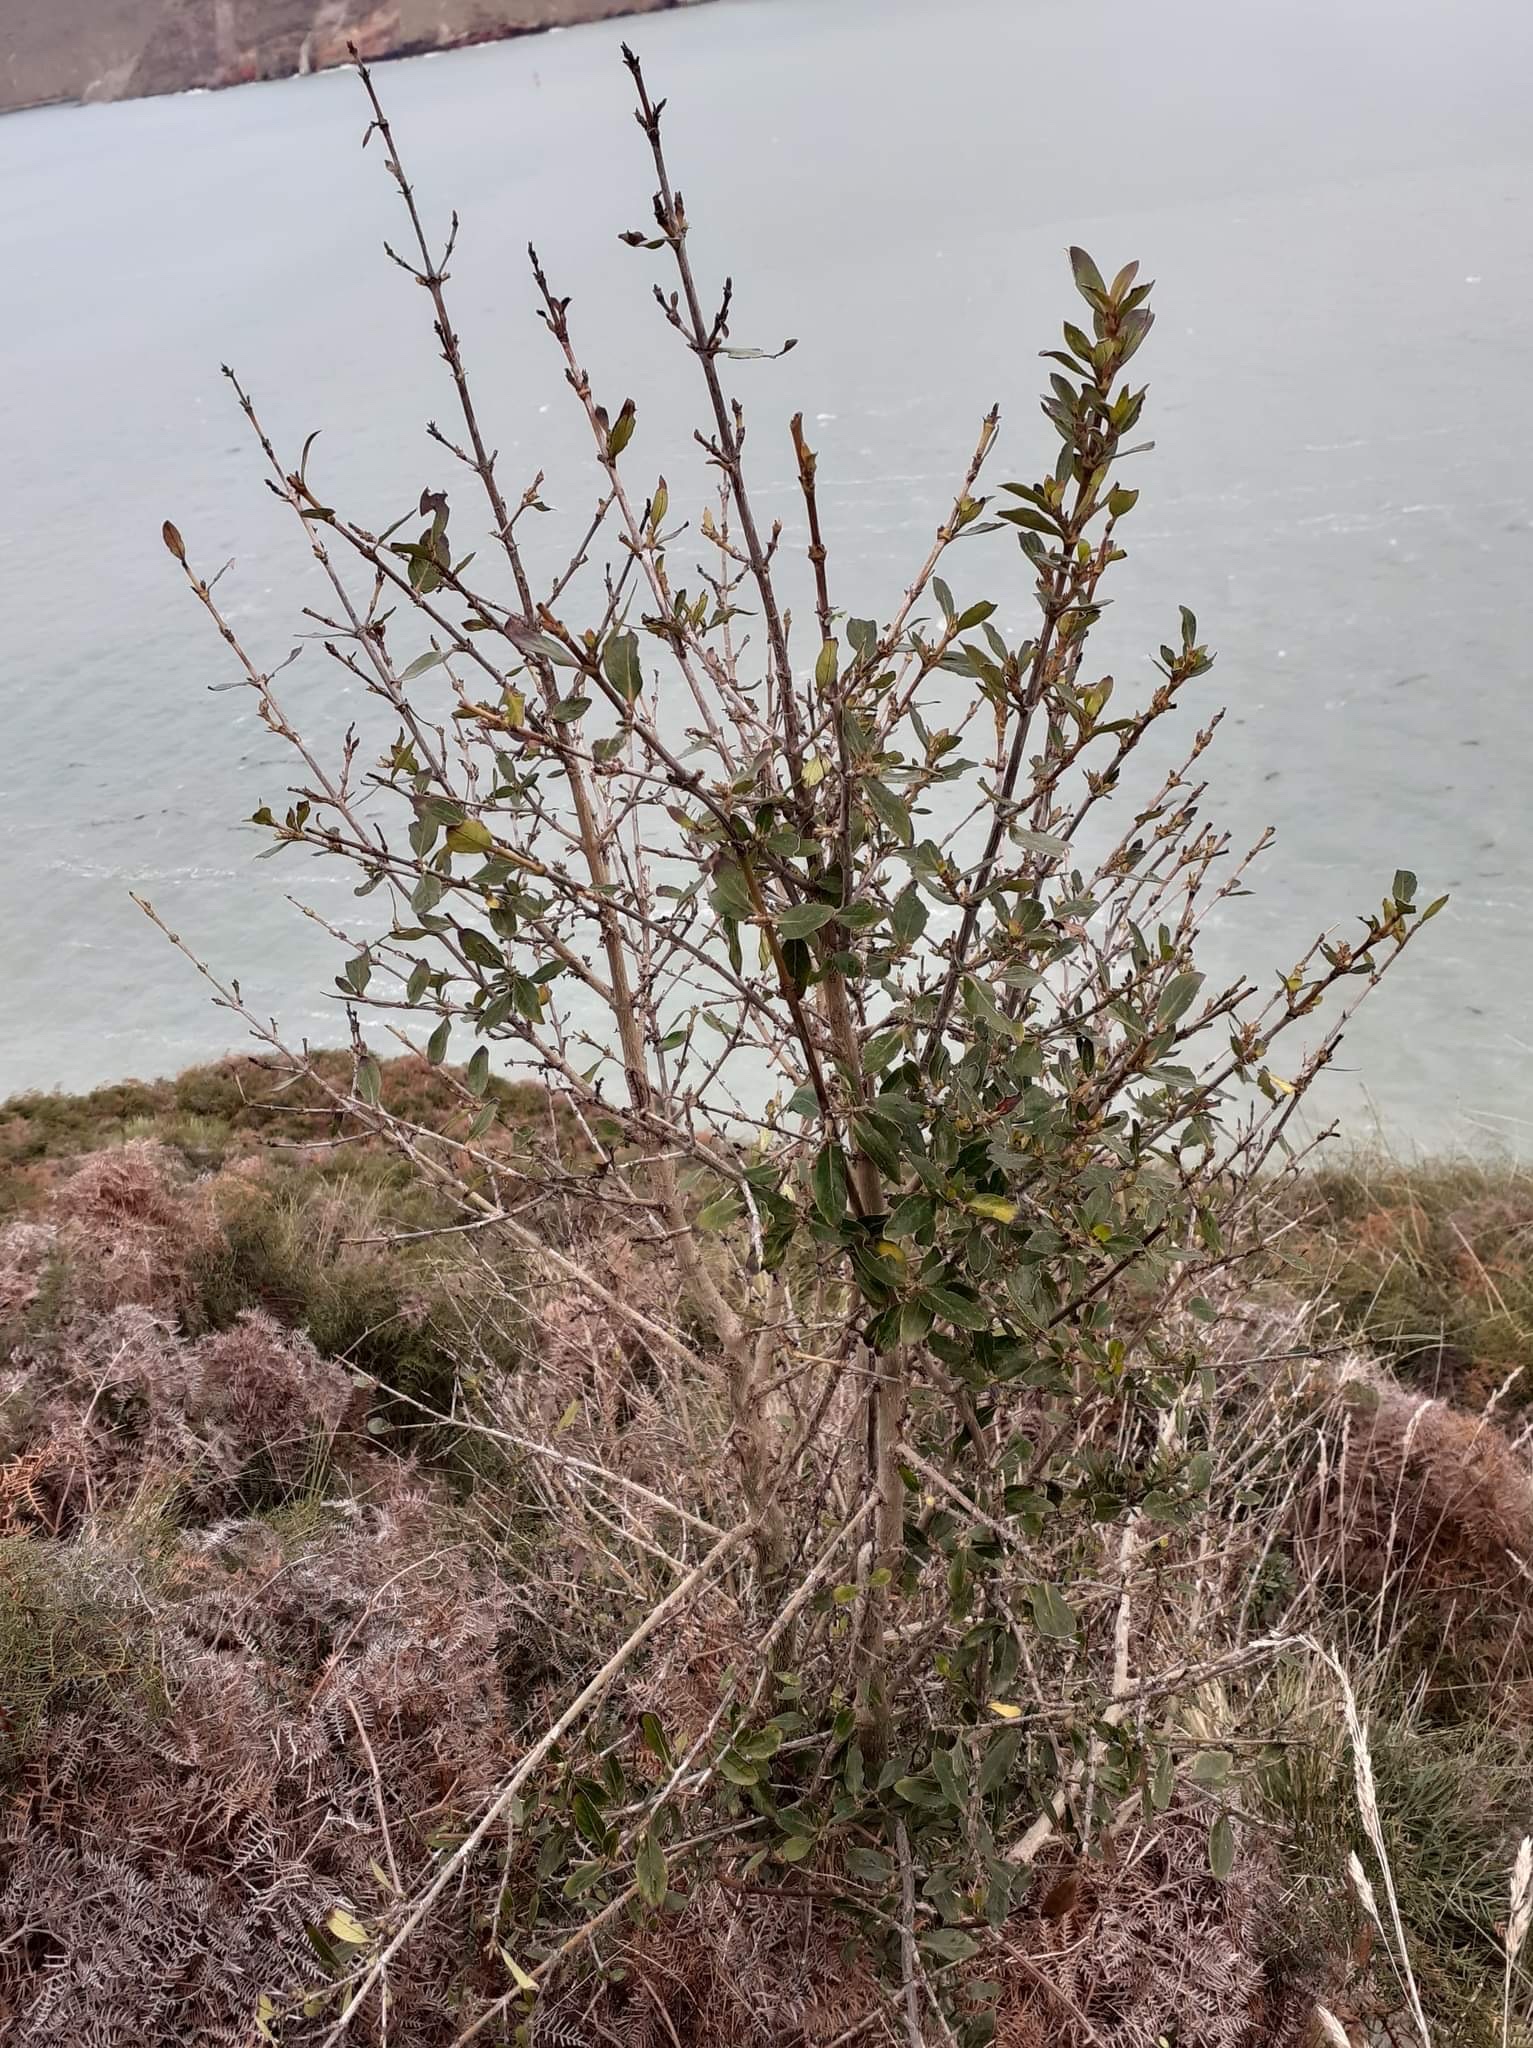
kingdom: Plantae
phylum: Tracheophyta
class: Magnoliopsida
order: Gentianales
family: Rubiaceae
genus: Coprosma
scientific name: Coprosma cunninghamii
